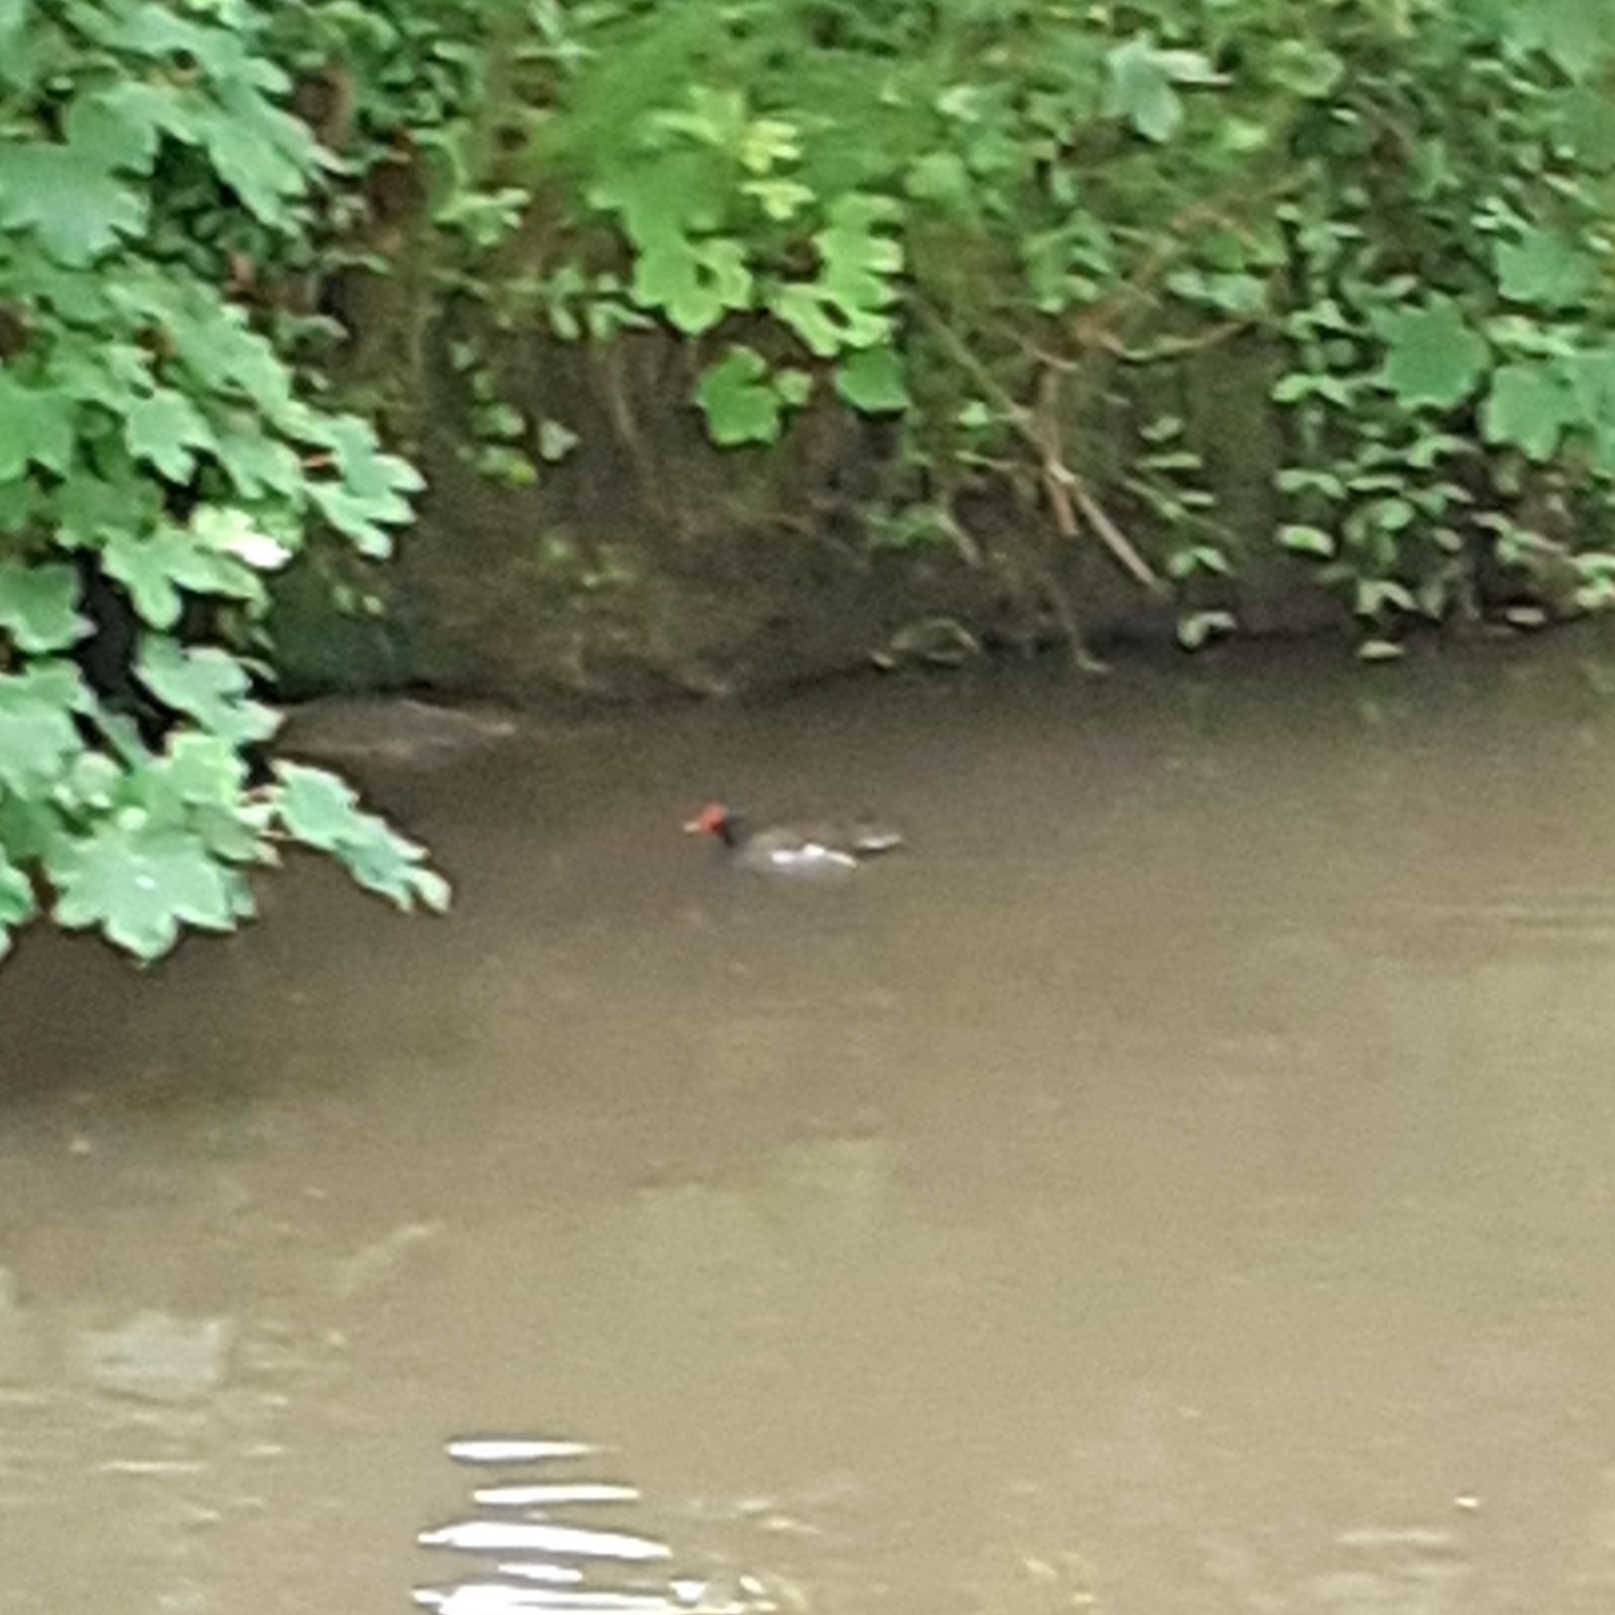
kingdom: Animalia
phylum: Chordata
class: Aves
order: Gruiformes
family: Rallidae
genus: Gallinula
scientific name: Gallinula chloropus
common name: Common moorhen
